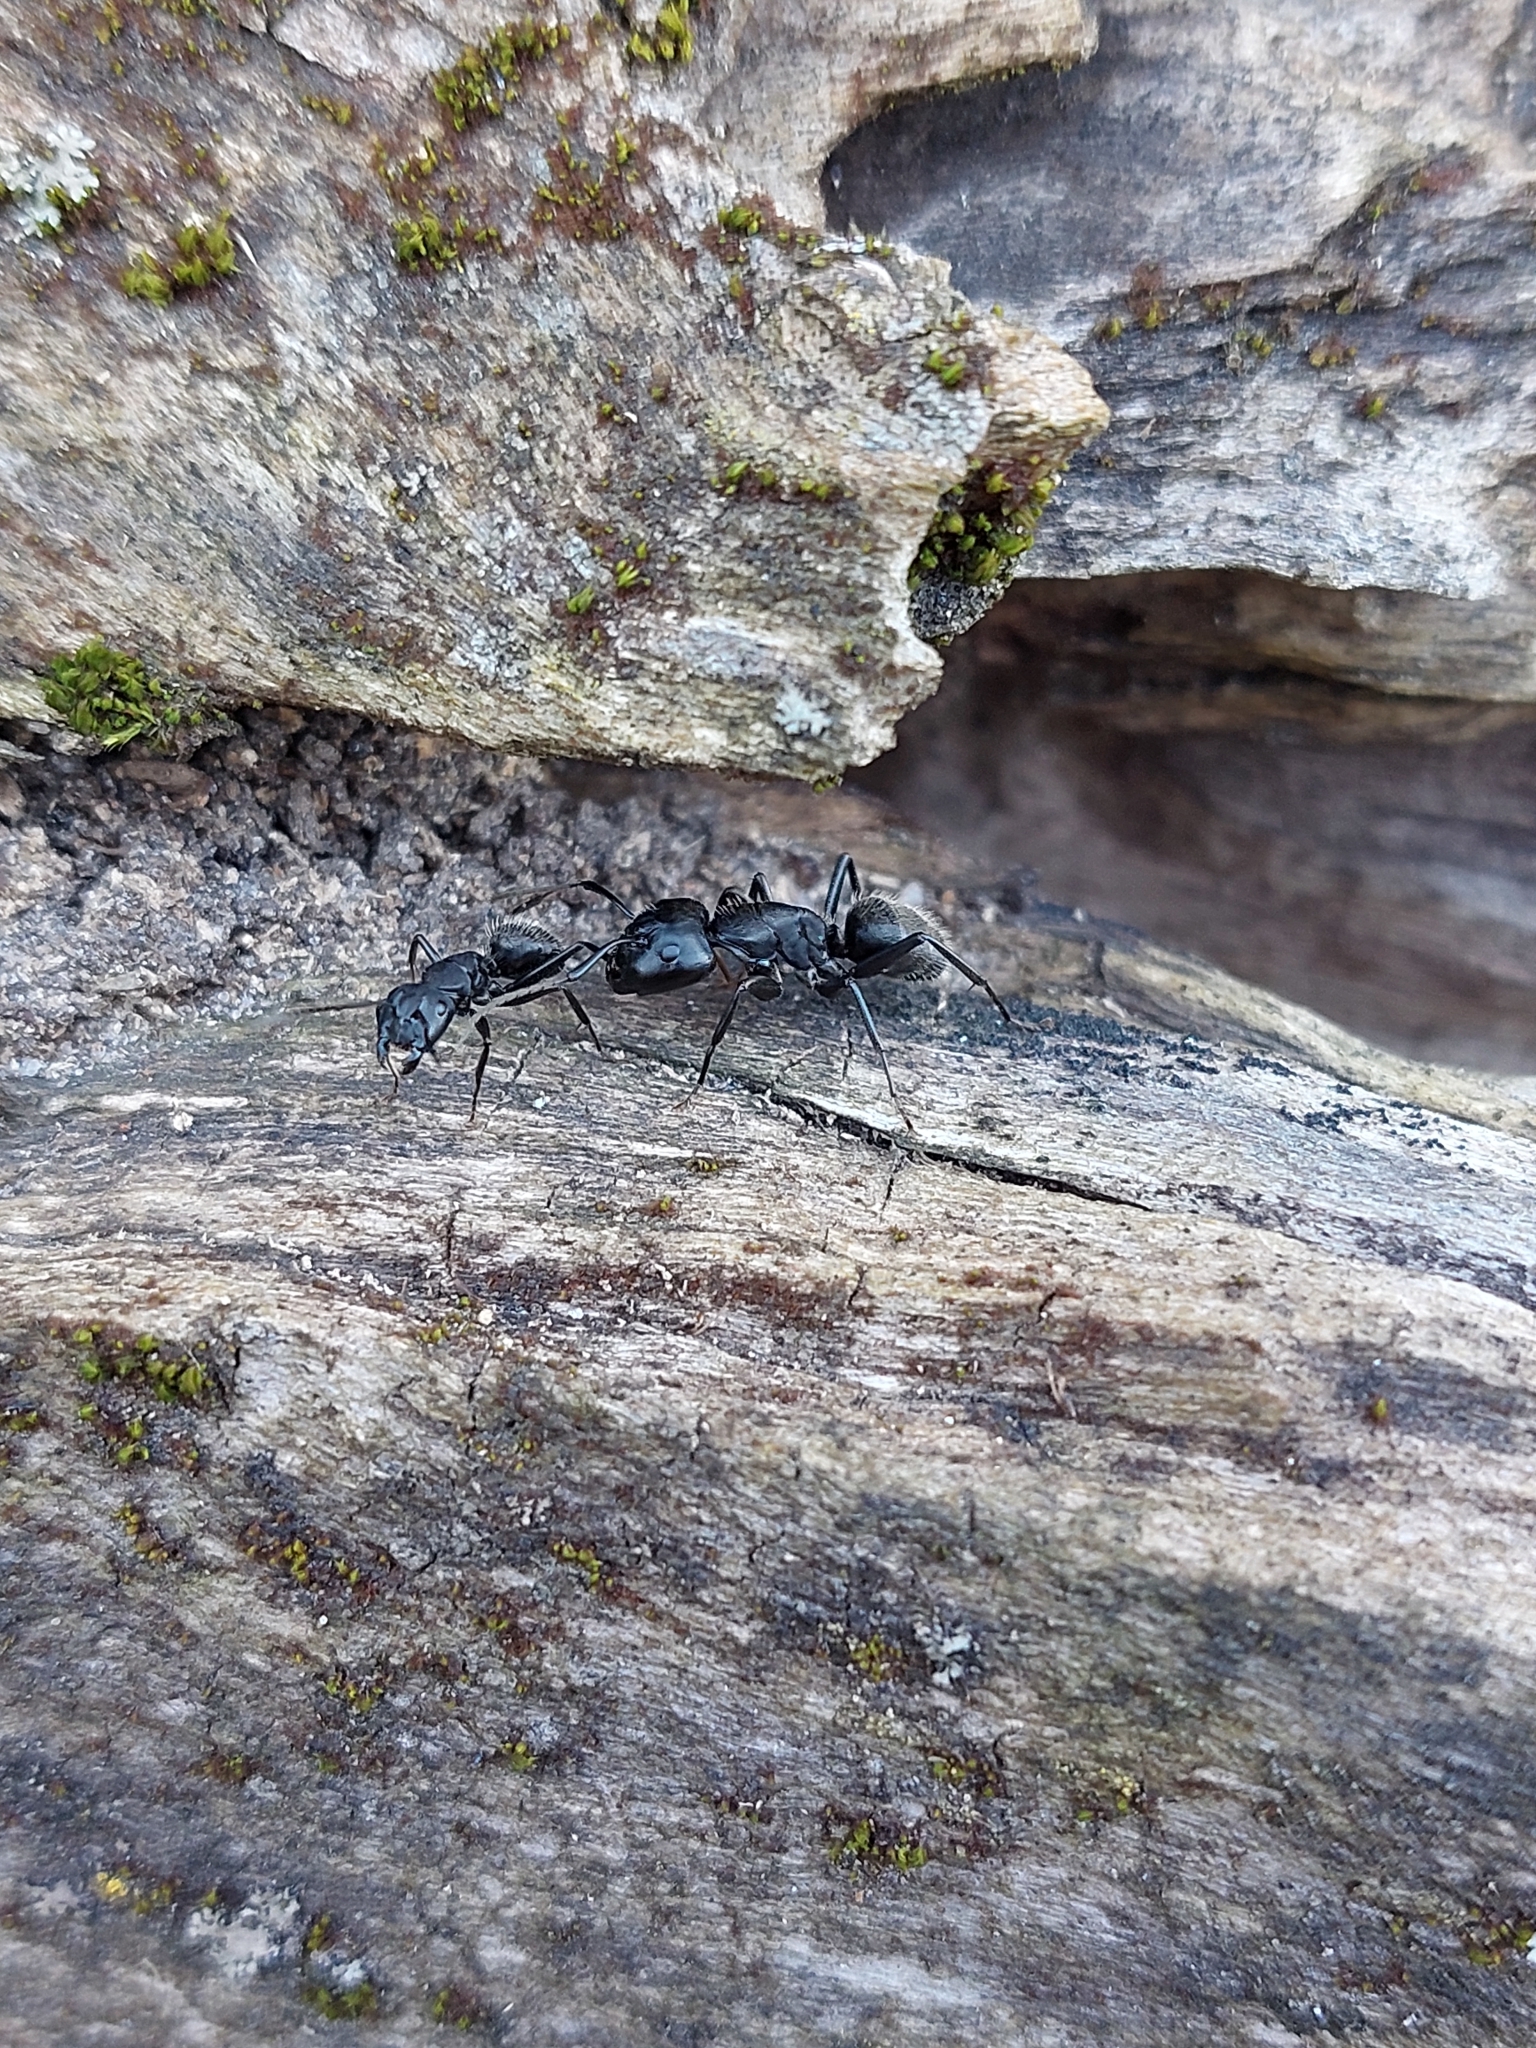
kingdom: Animalia
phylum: Arthropoda
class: Insecta
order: Hymenoptera
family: Formicidae
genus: Camponotus
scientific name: Camponotus vagus
